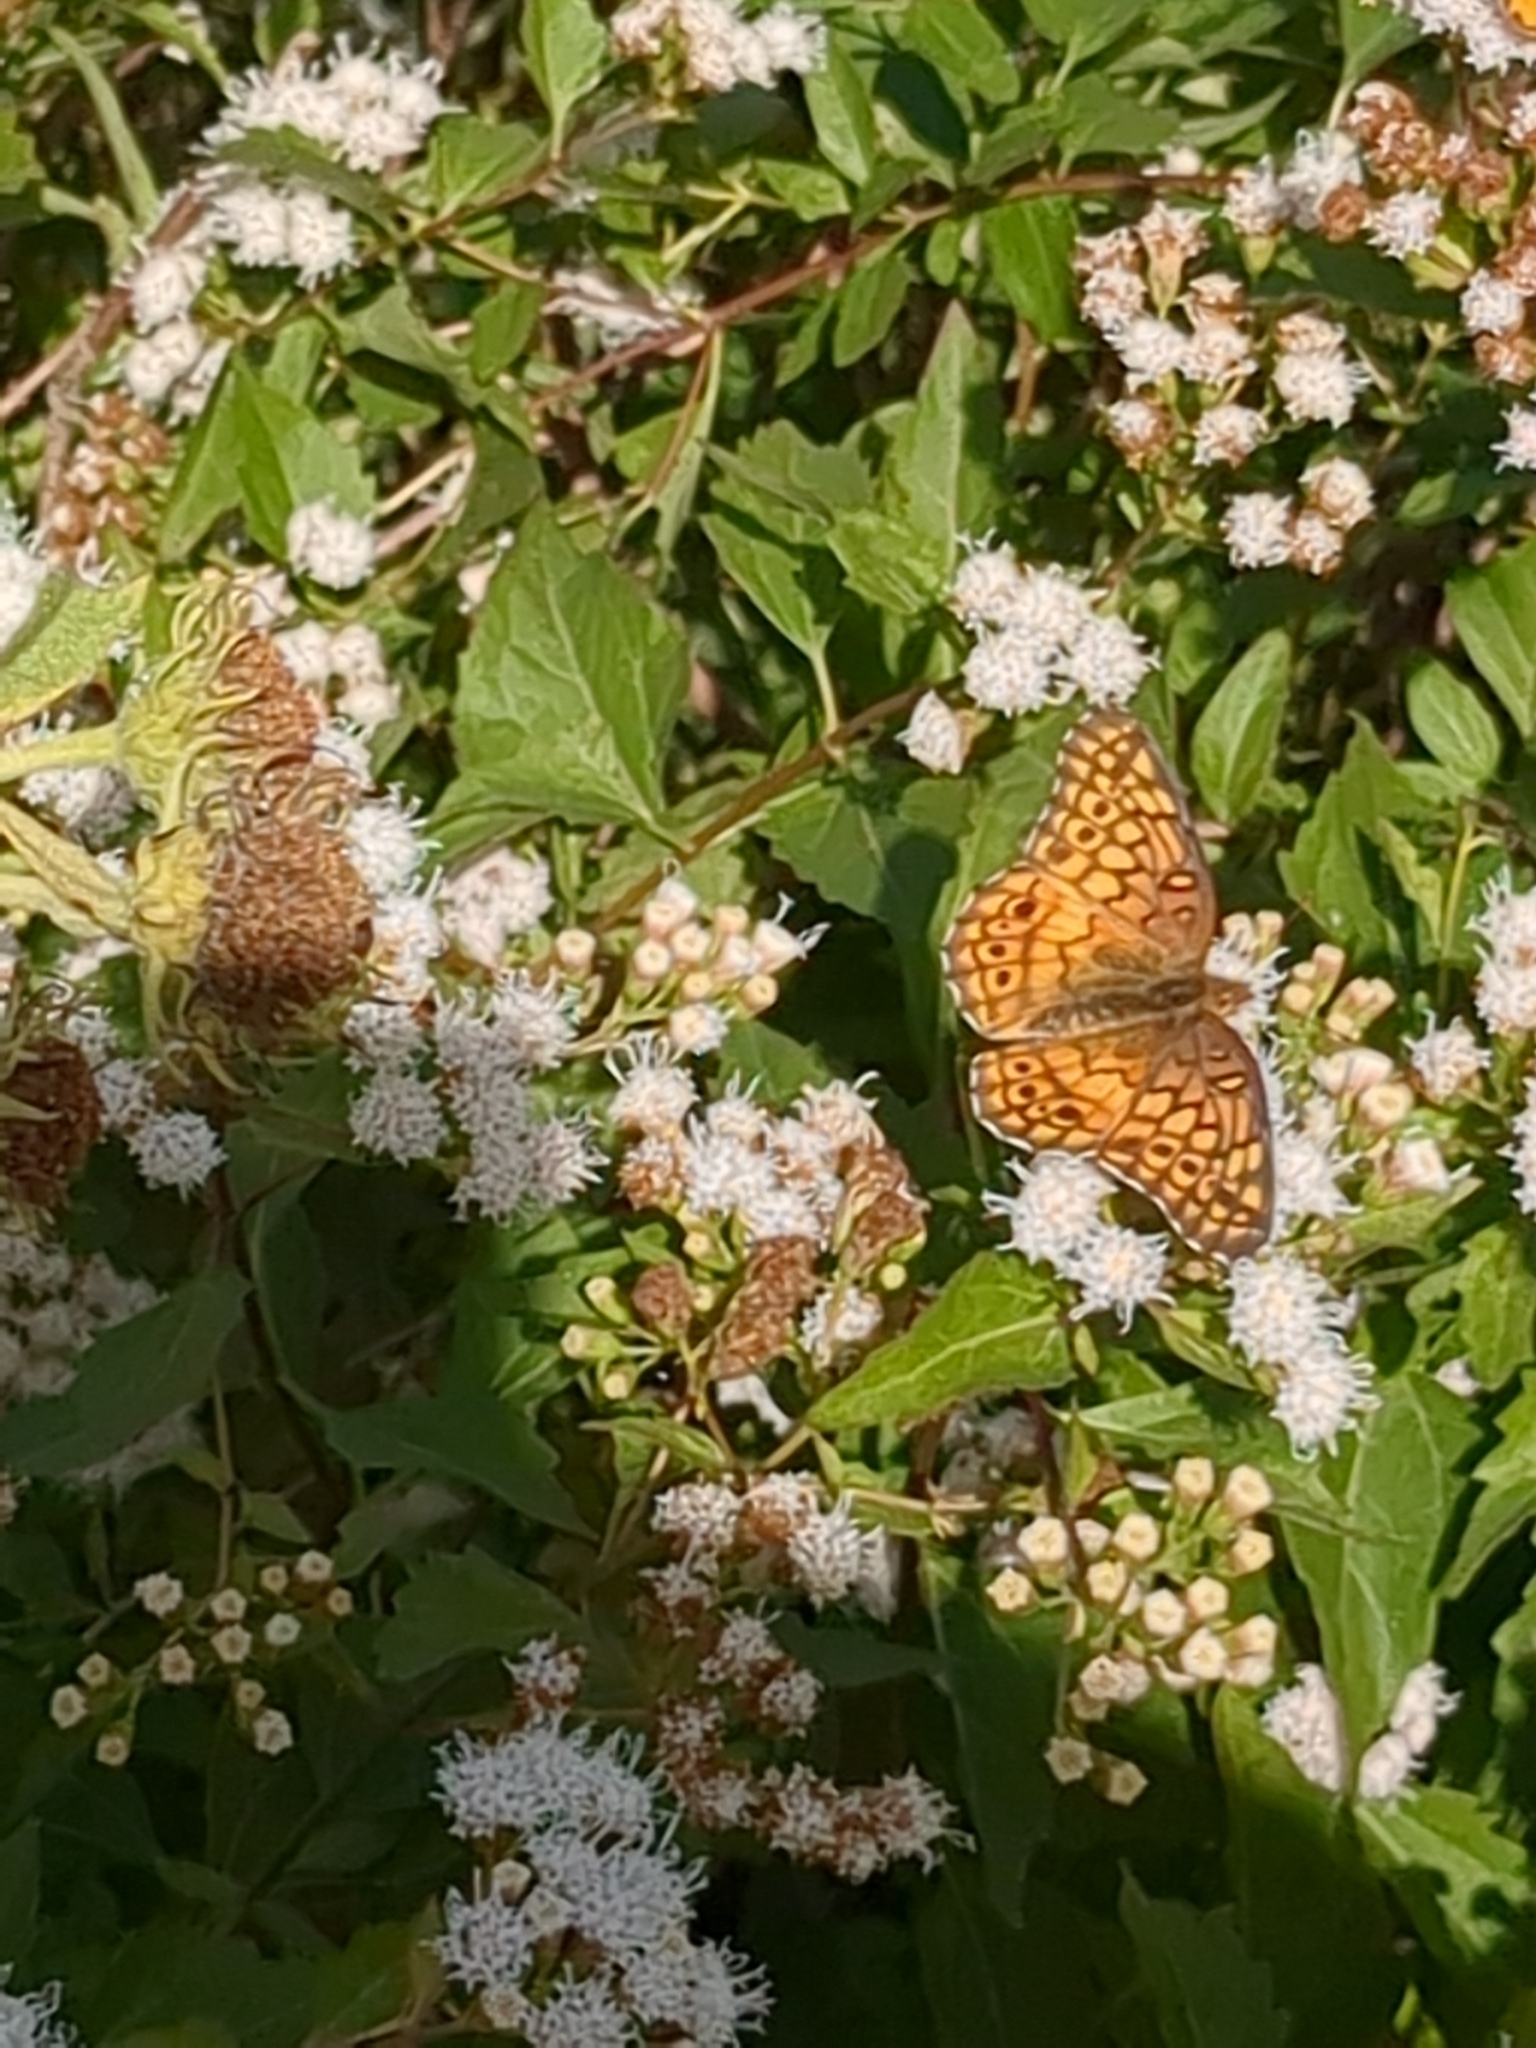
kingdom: Animalia
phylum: Arthropoda
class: Insecta
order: Lepidoptera
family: Nymphalidae
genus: Euptoieta
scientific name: Euptoieta claudia
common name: Variegated fritillary
